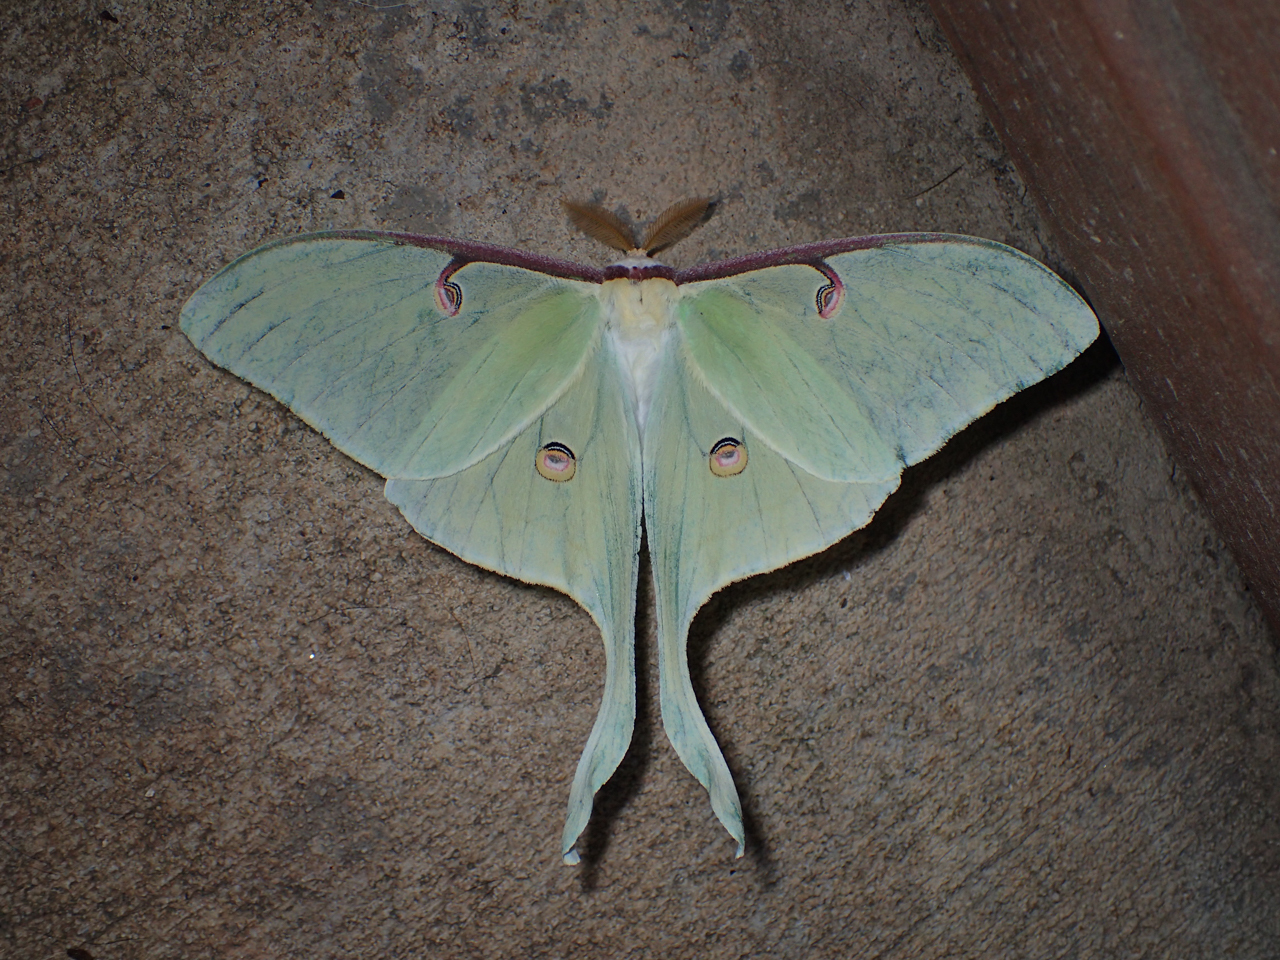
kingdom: Animalia
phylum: Arthropoda
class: Insecta
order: Lepidoptera
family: Saturniidae
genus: Actias
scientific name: Actias luna
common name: Luna moth
